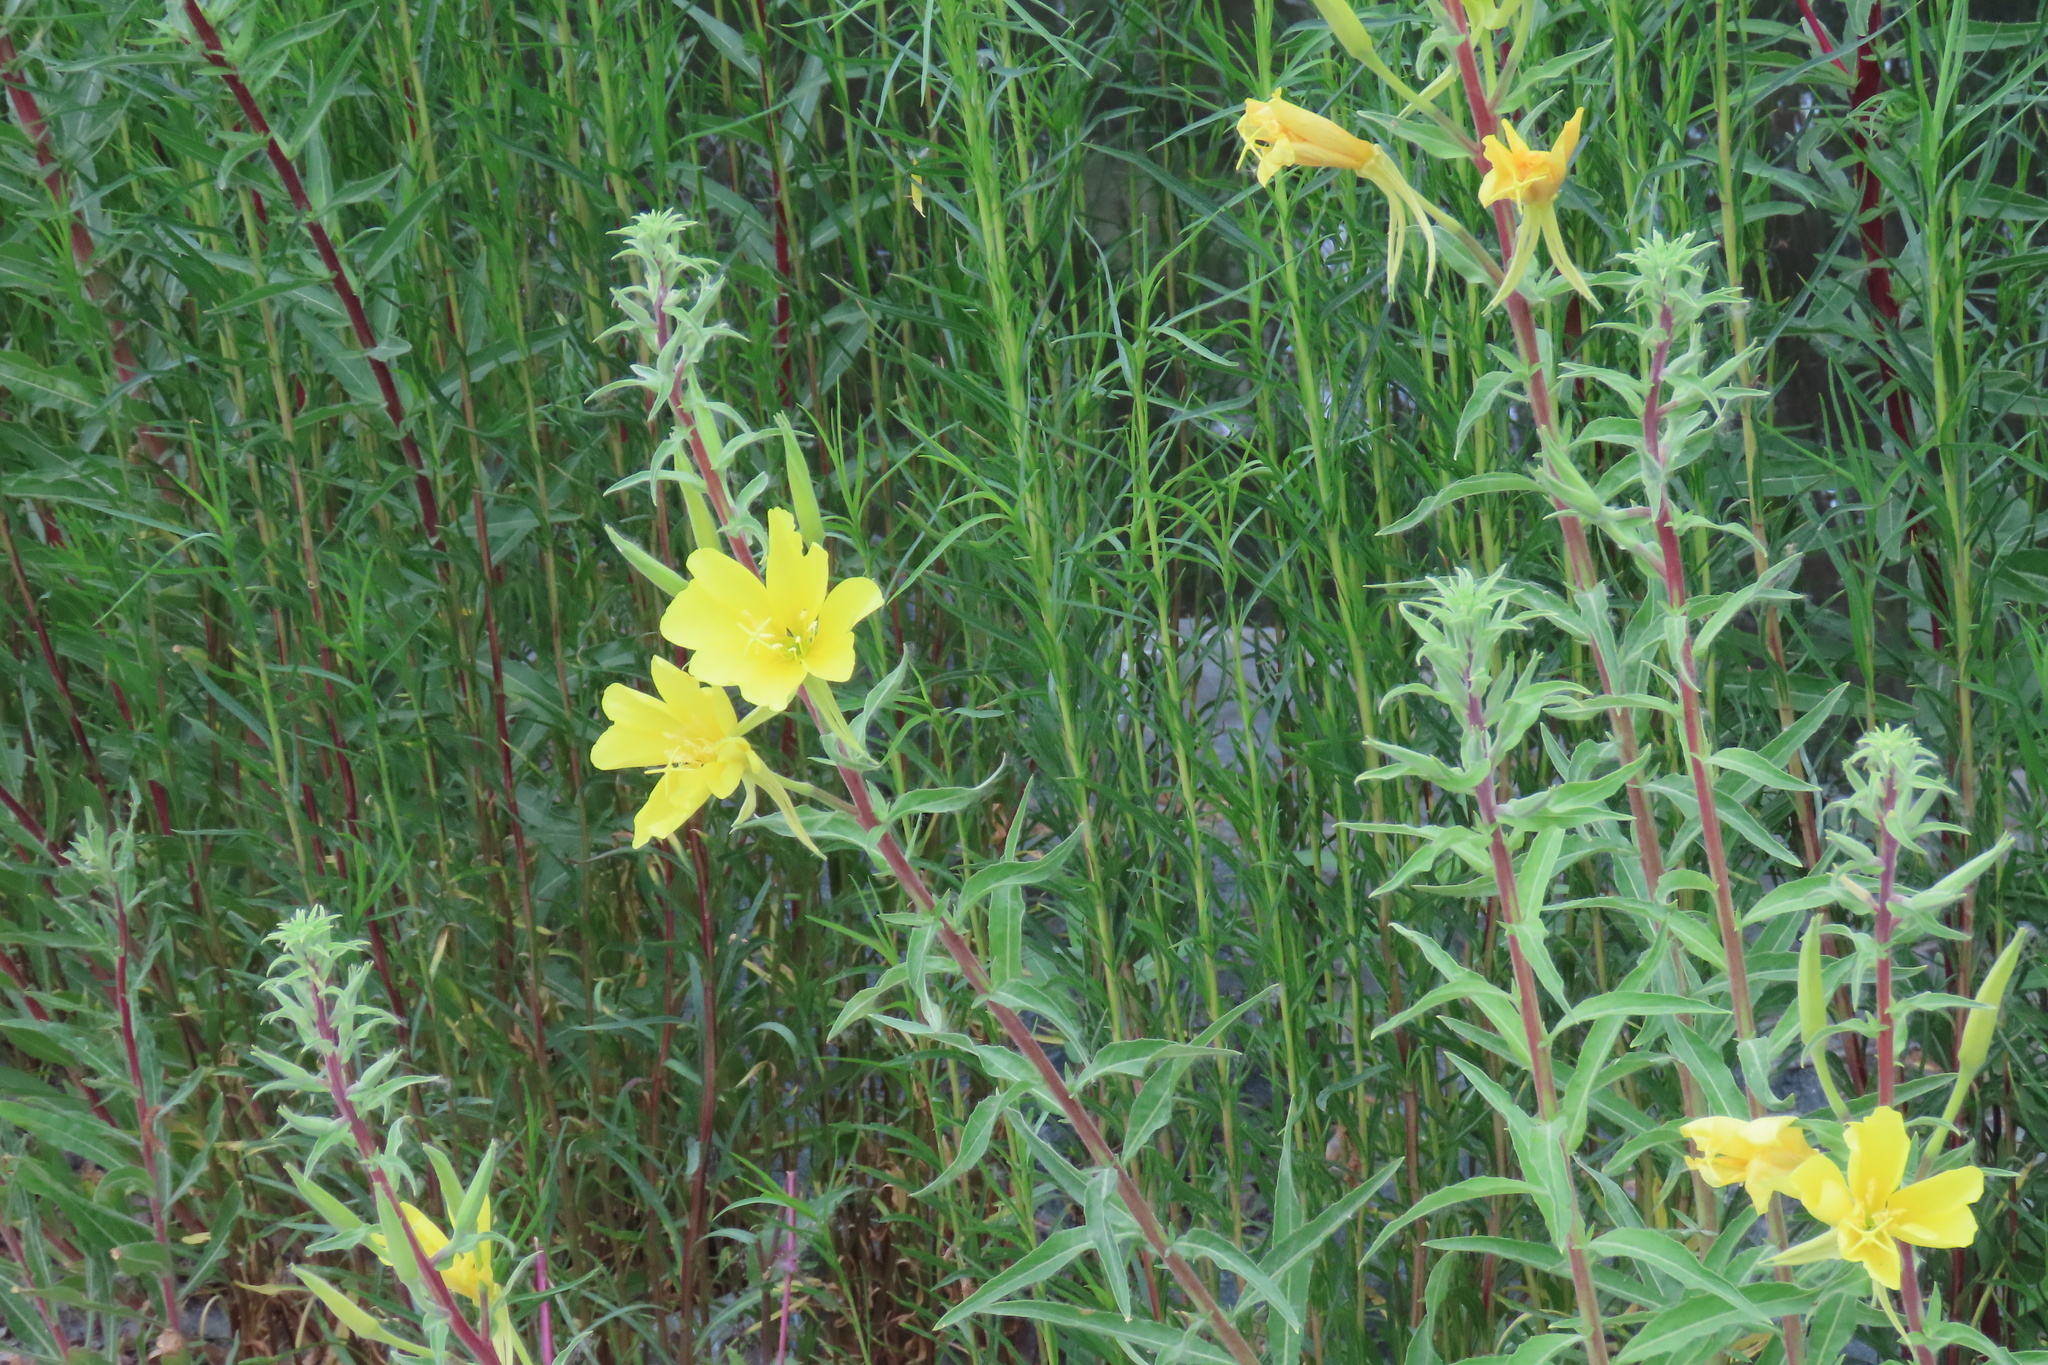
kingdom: Plantae
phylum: Tracheophyta
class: Magnoliopsida
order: Myrtales
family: Onagraceae
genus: Oenothera
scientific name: Oenothera elata
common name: Hooker's evening-primrose
